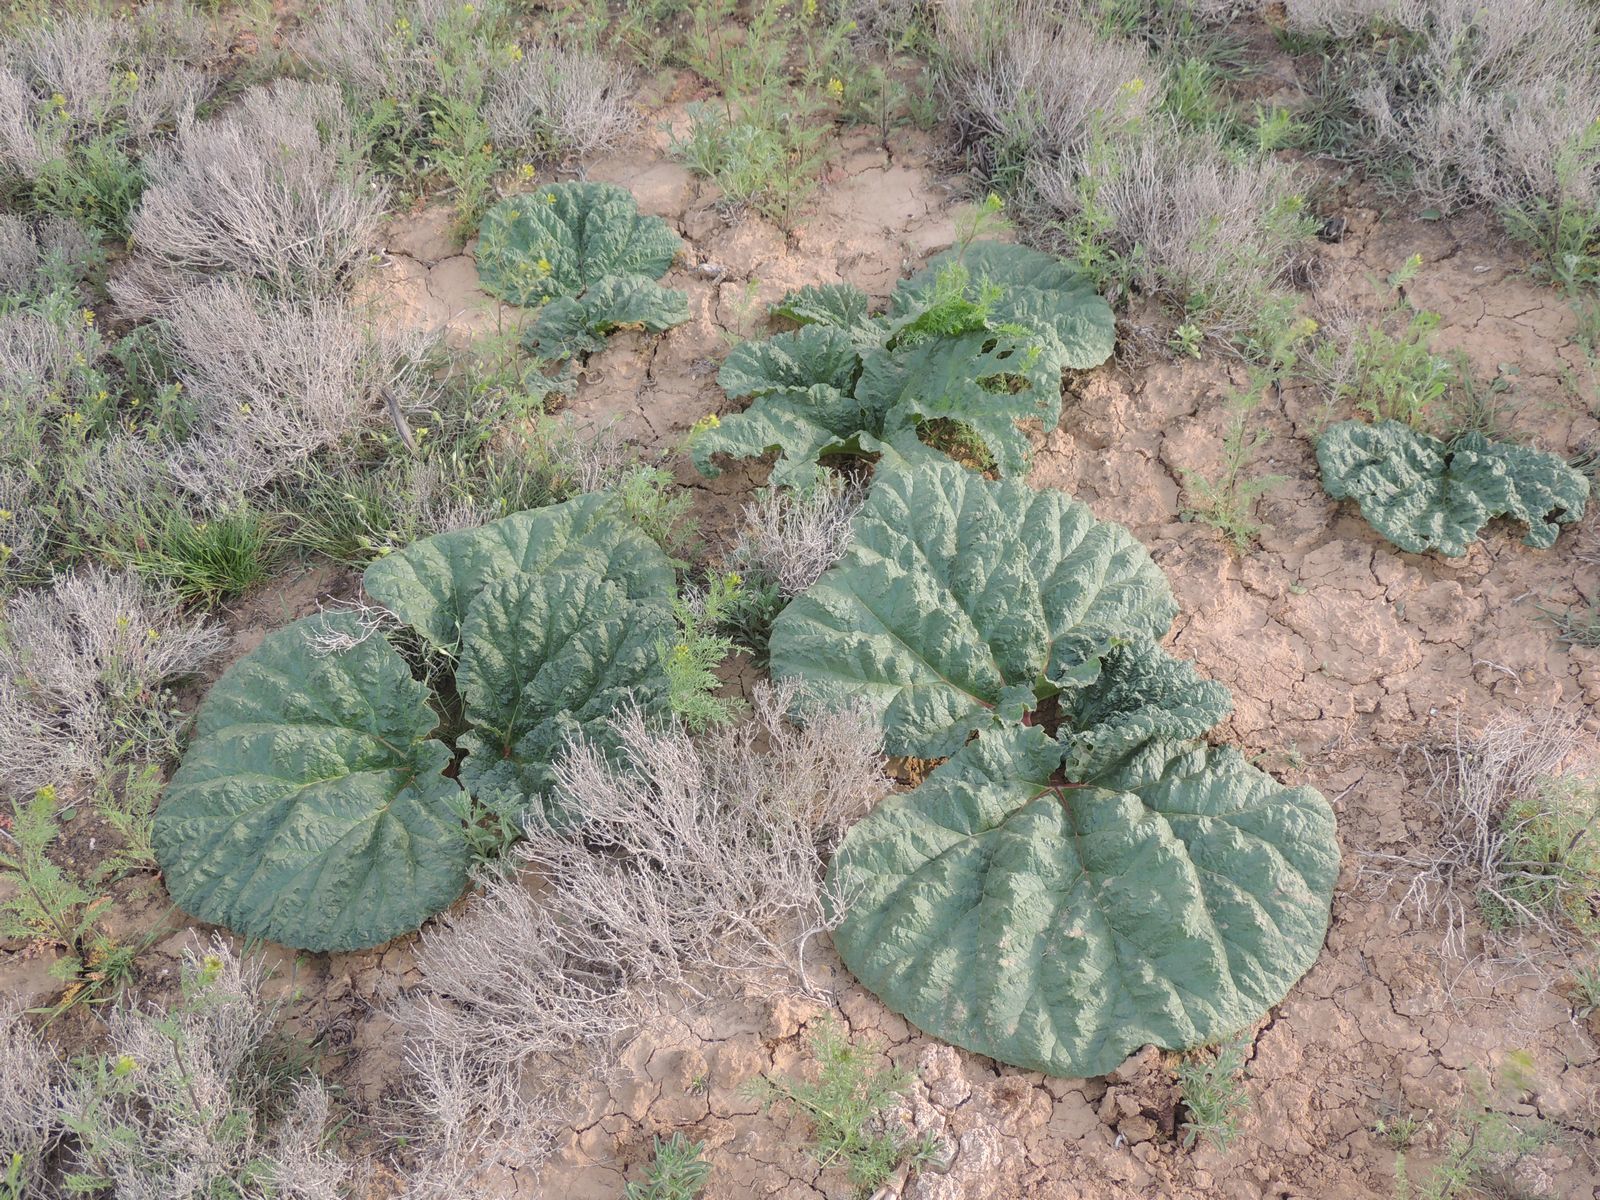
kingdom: Plantae
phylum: Tracheophyta
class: Magnoliopsida
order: Caryophyllales
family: Polygonaceae
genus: Rheum
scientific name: Rheum tataricum
